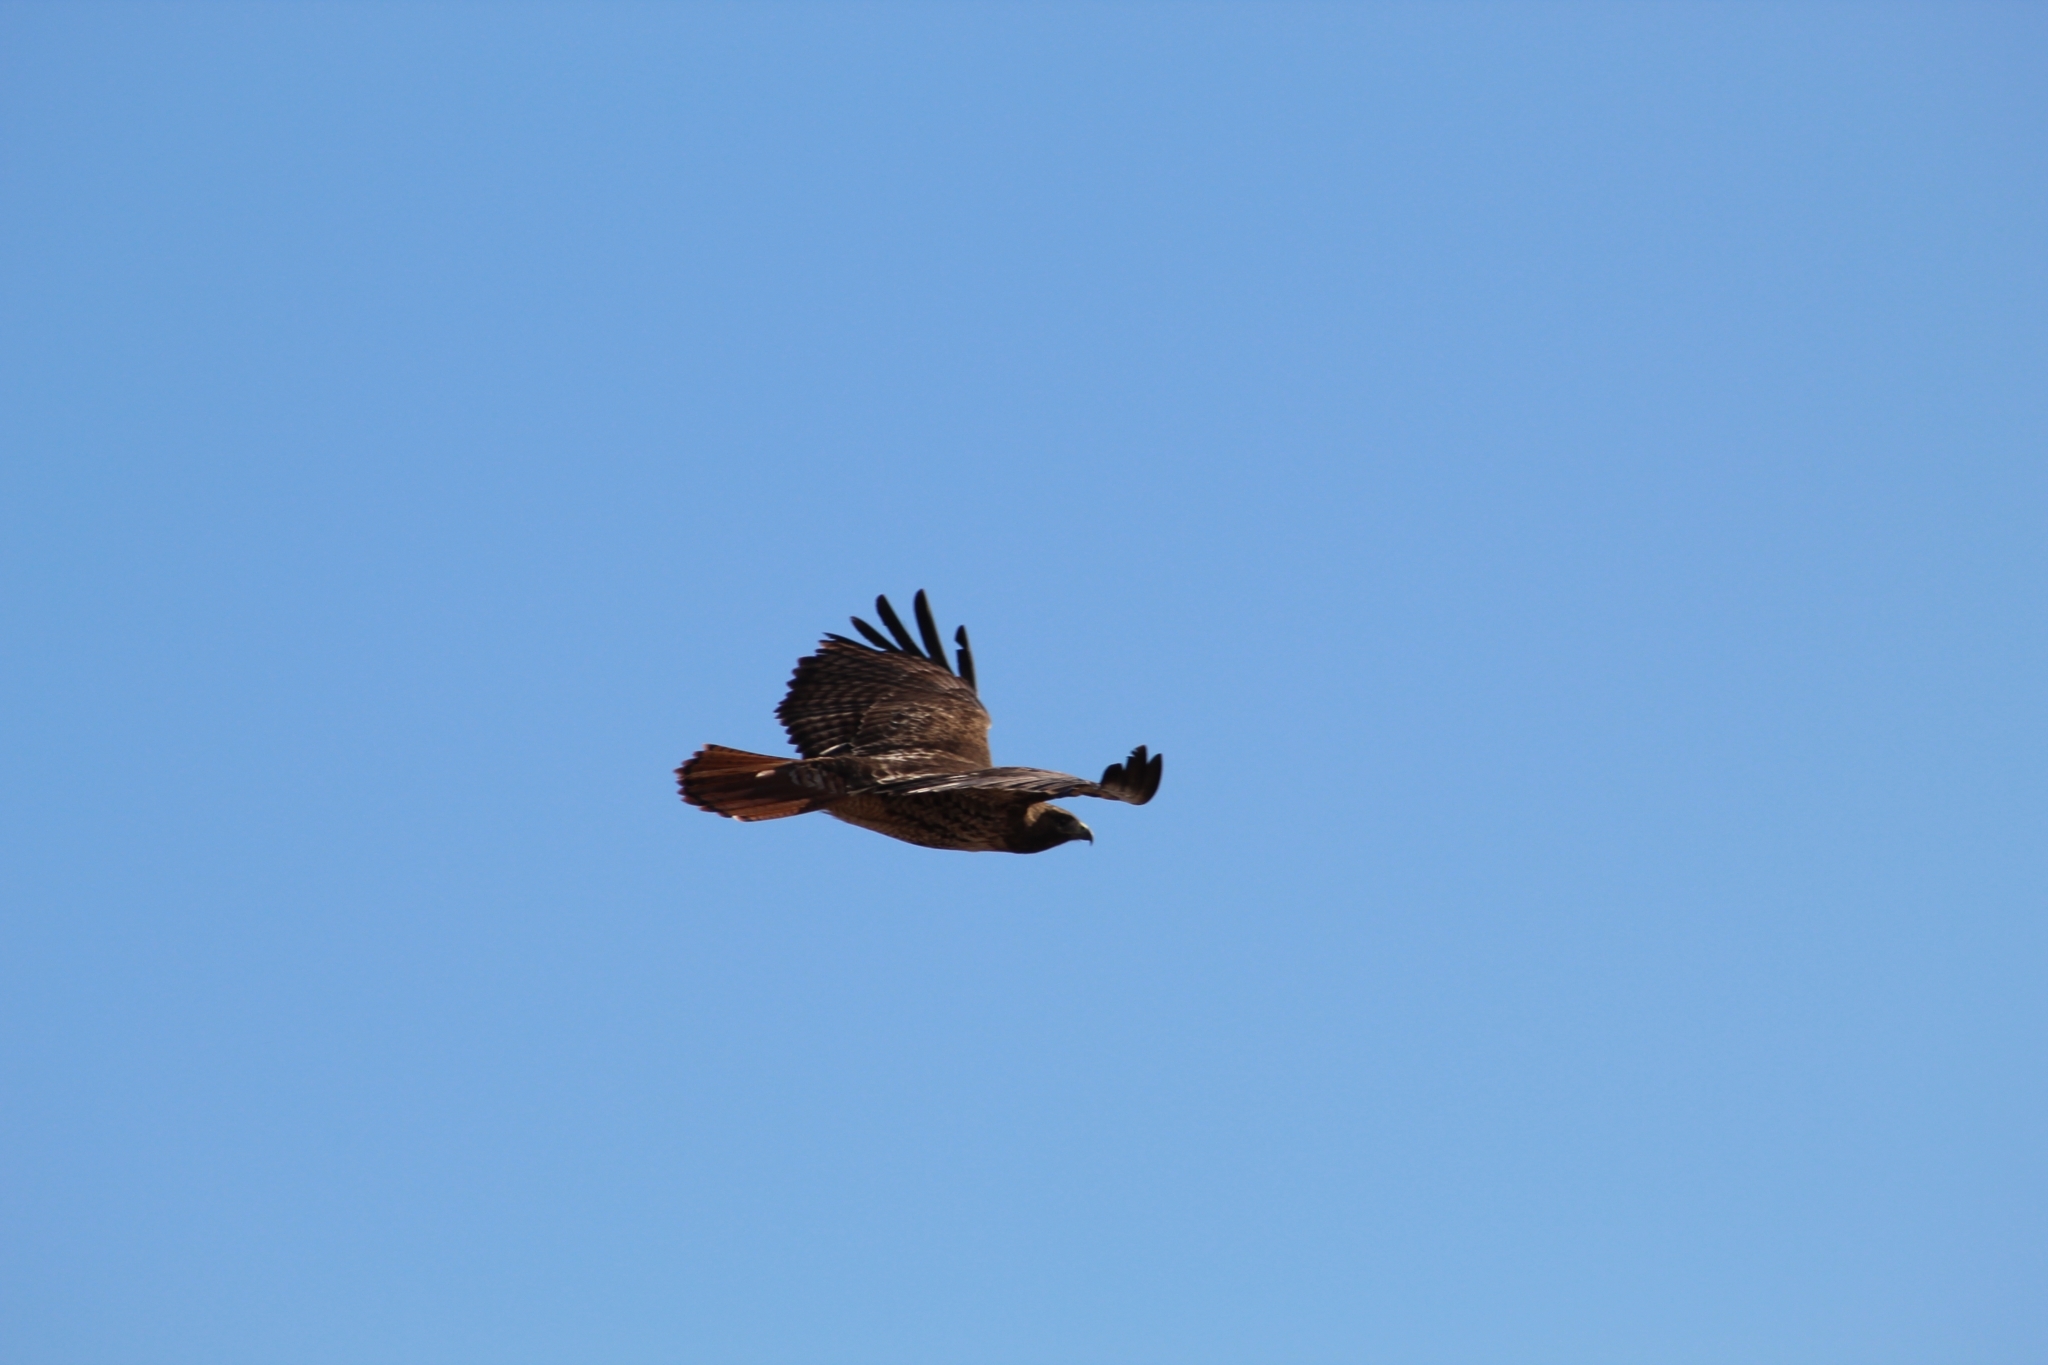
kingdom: Animalia
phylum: Chordata
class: Aves
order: Accipitriformes
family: Accipitridae
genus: Buteo
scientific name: Buteo jamaicensis
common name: Red-tailed hawk
